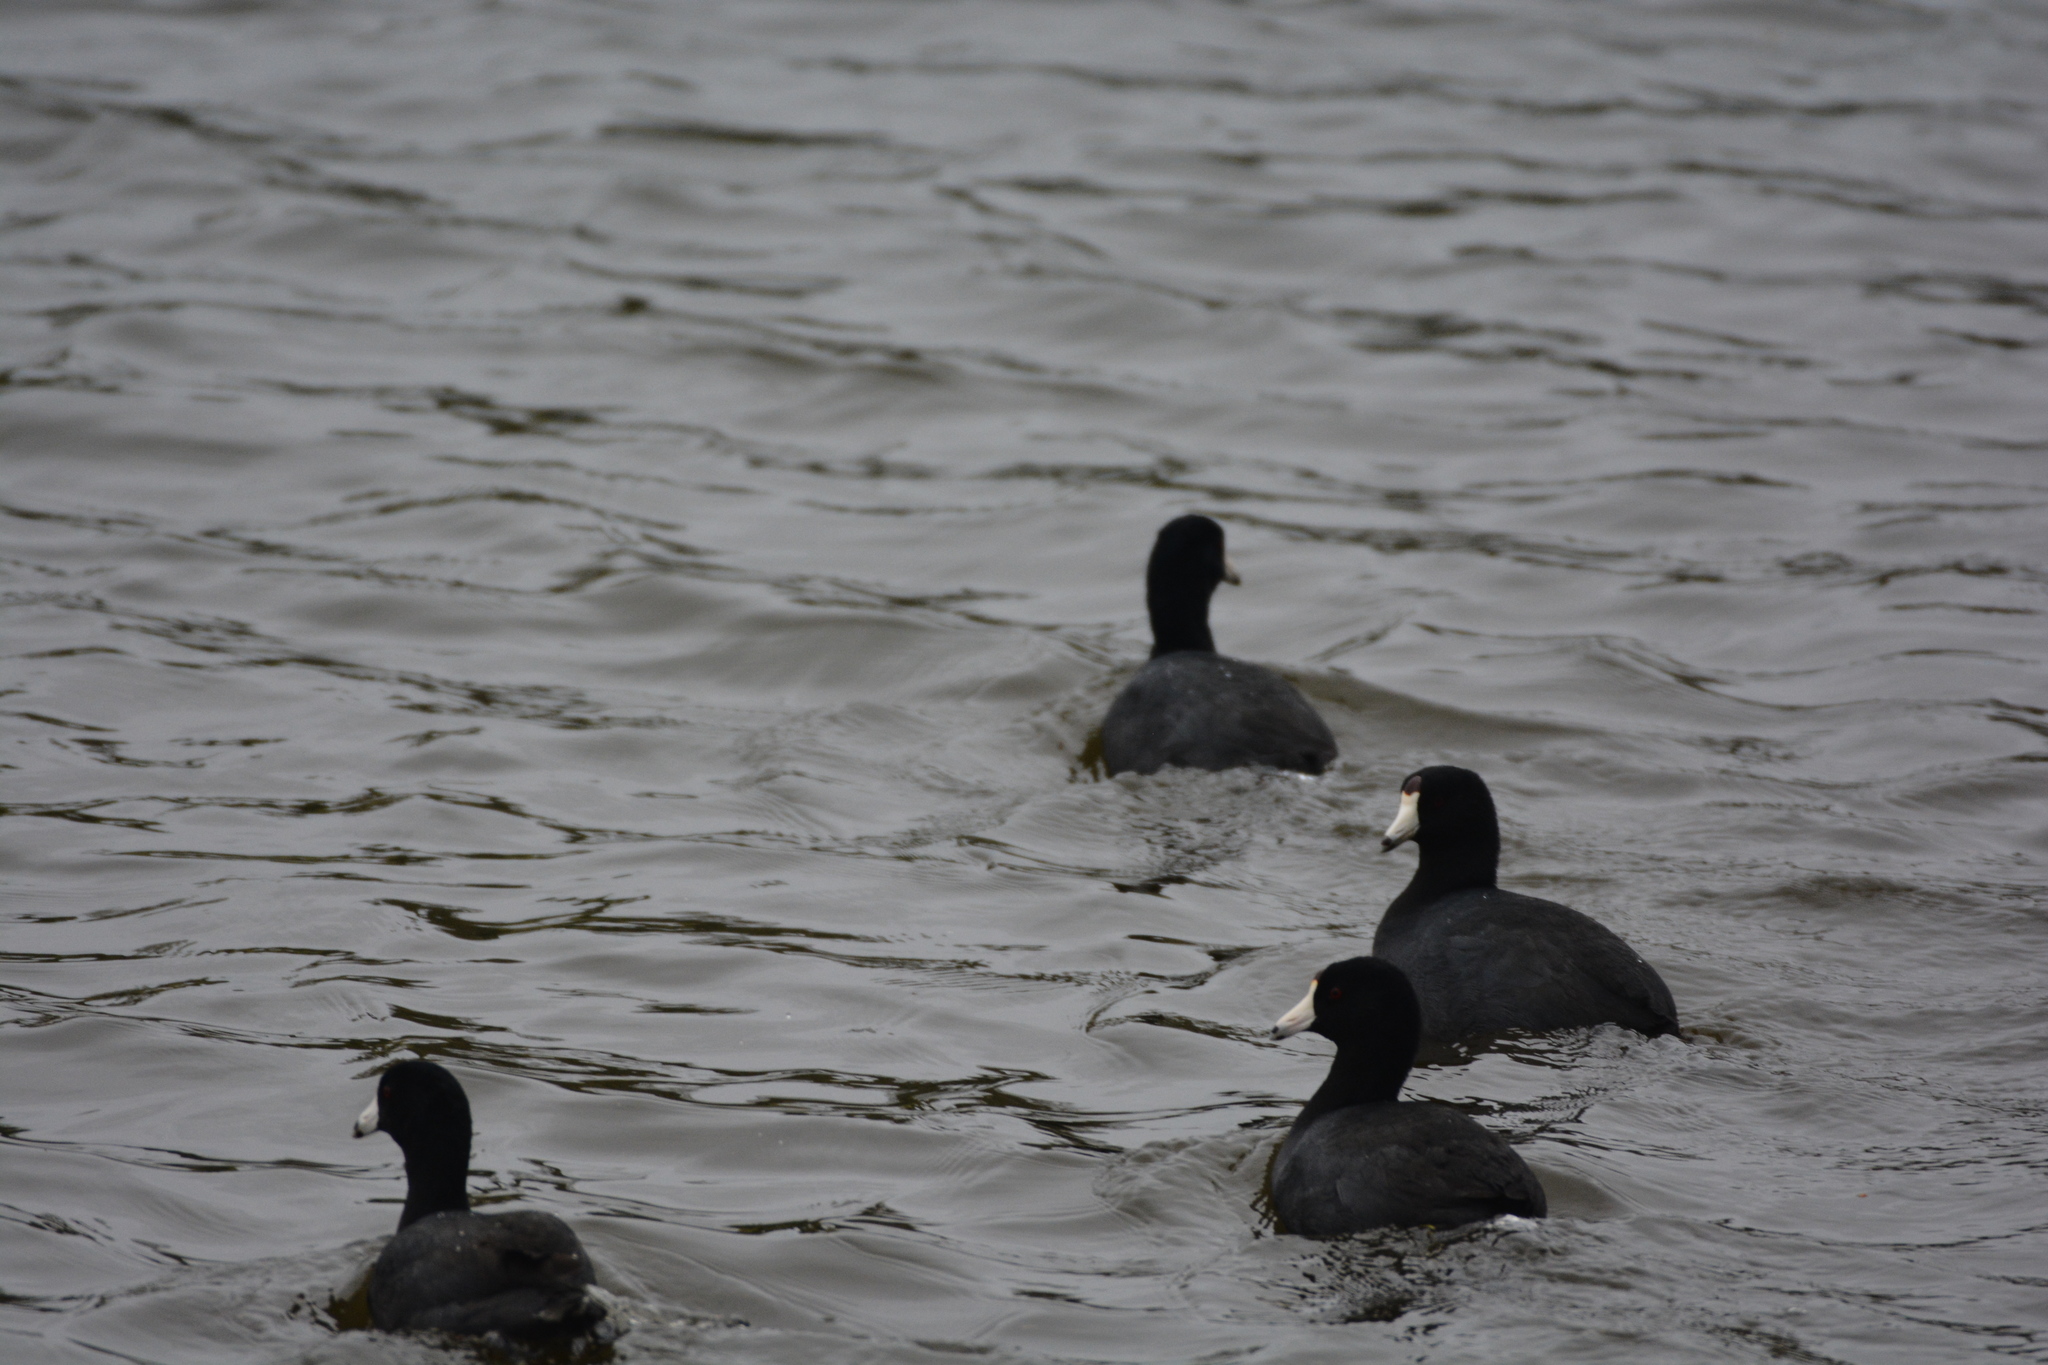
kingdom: Animalia
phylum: Chordata
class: Aves
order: Gruiformes
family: Rallidae
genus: Fulica
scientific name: Fulica americana
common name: American coot
